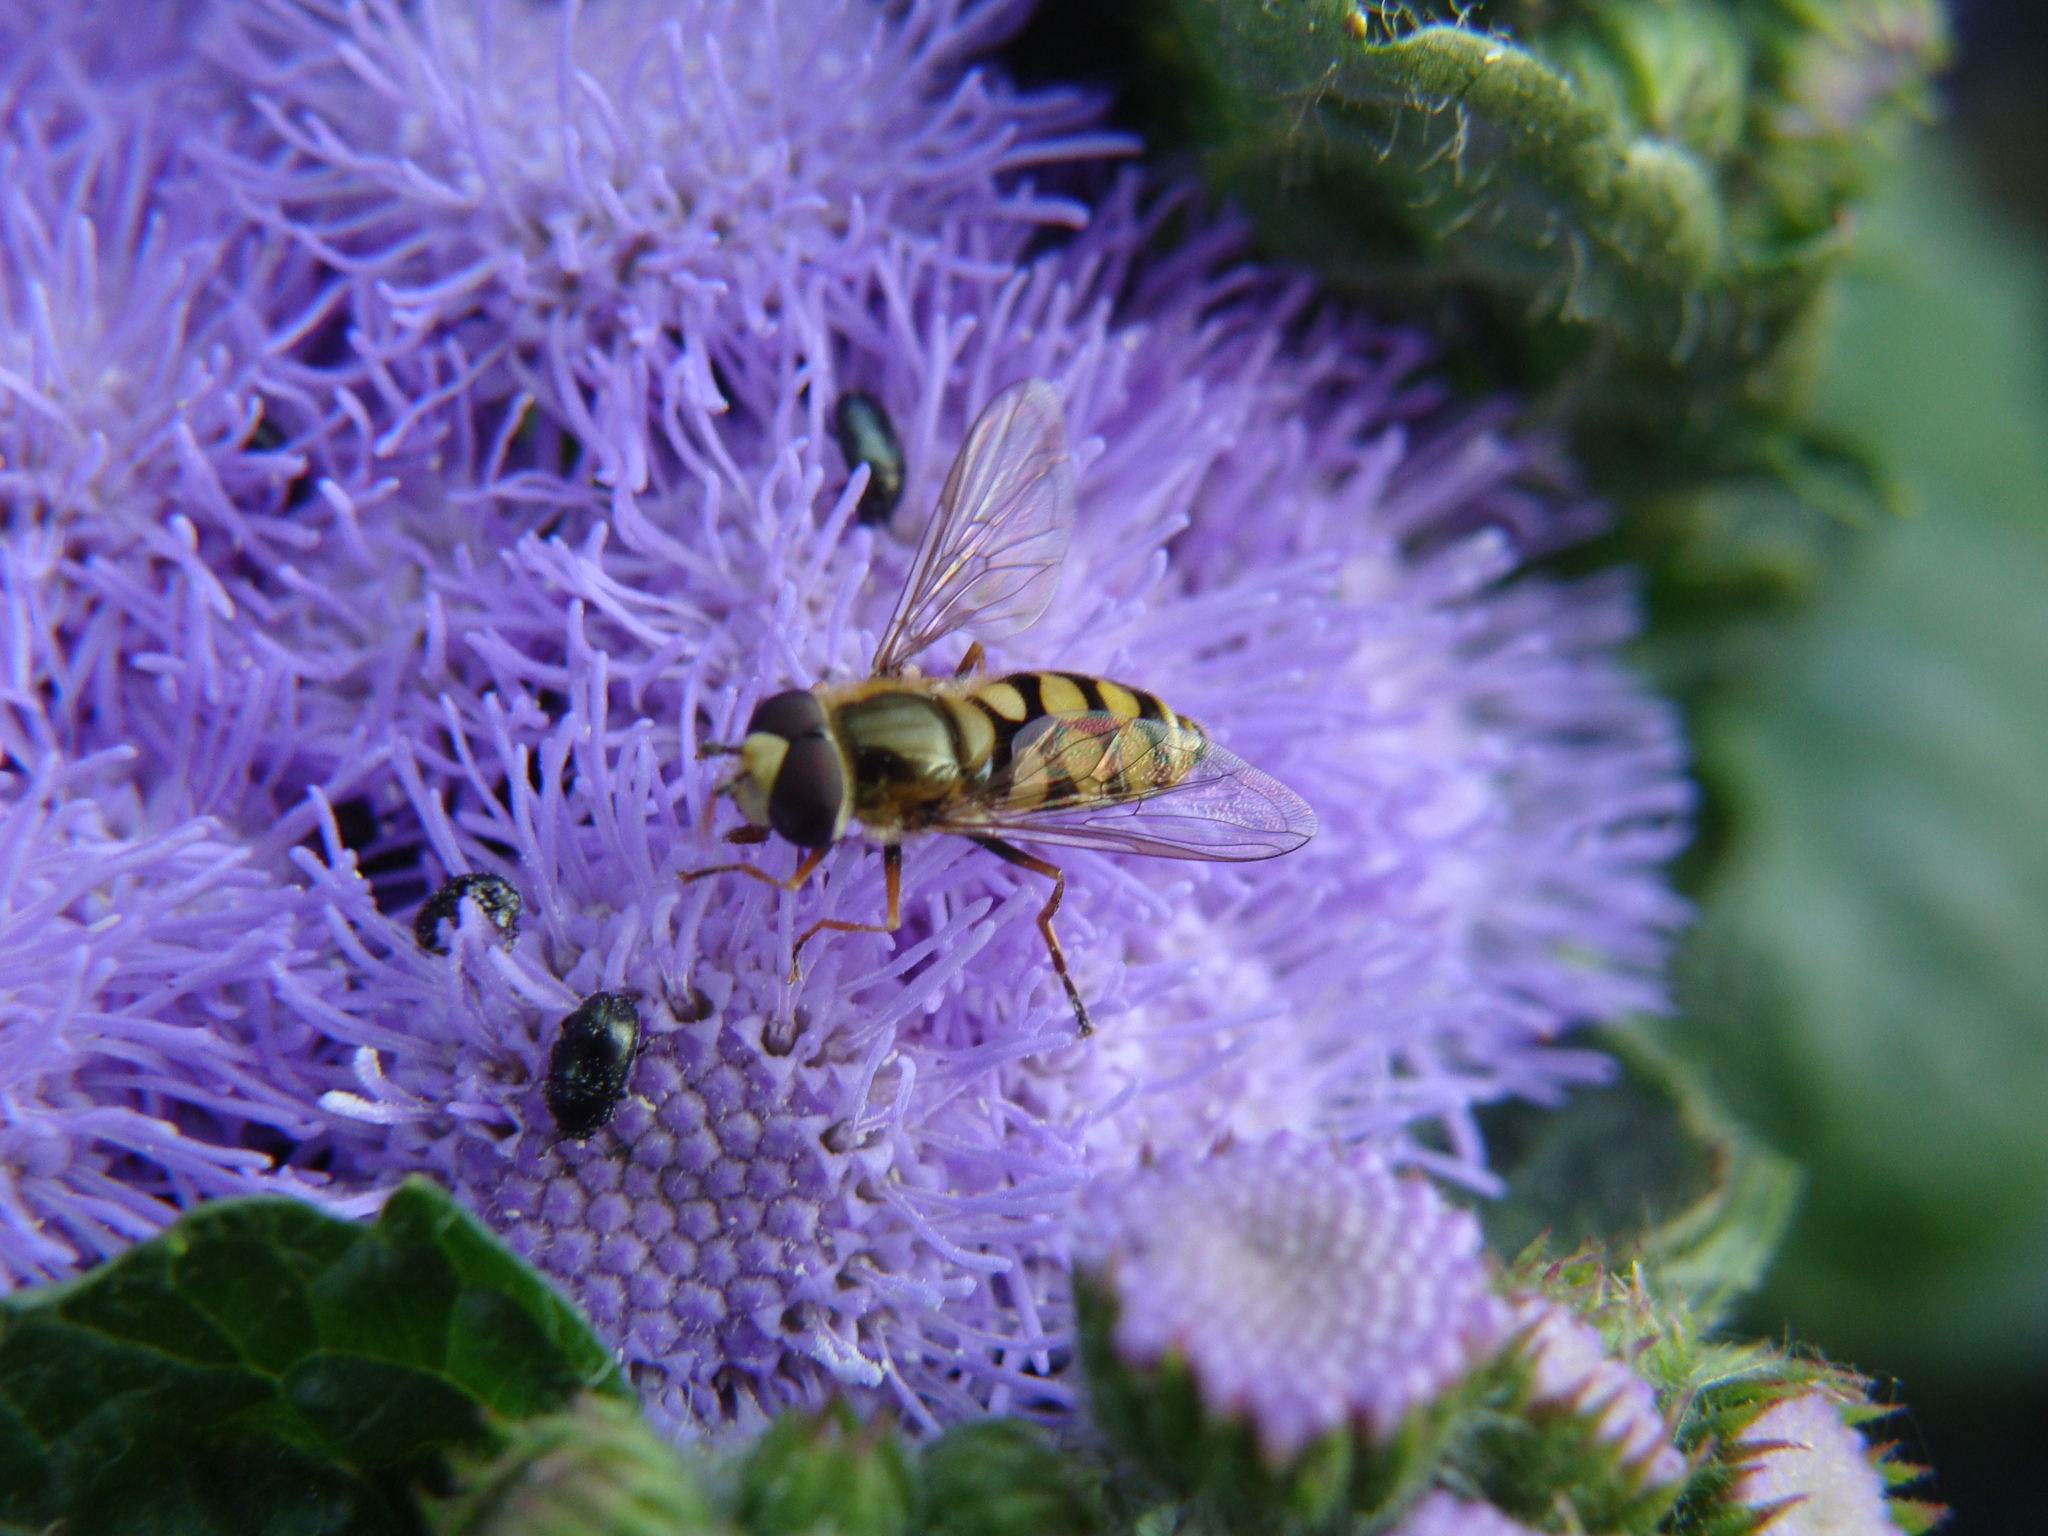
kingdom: Animalia
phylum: Arthropoda
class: Insecta
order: Diptera
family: Syrphidae
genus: Eupeodes
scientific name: Eupeodes corollae
